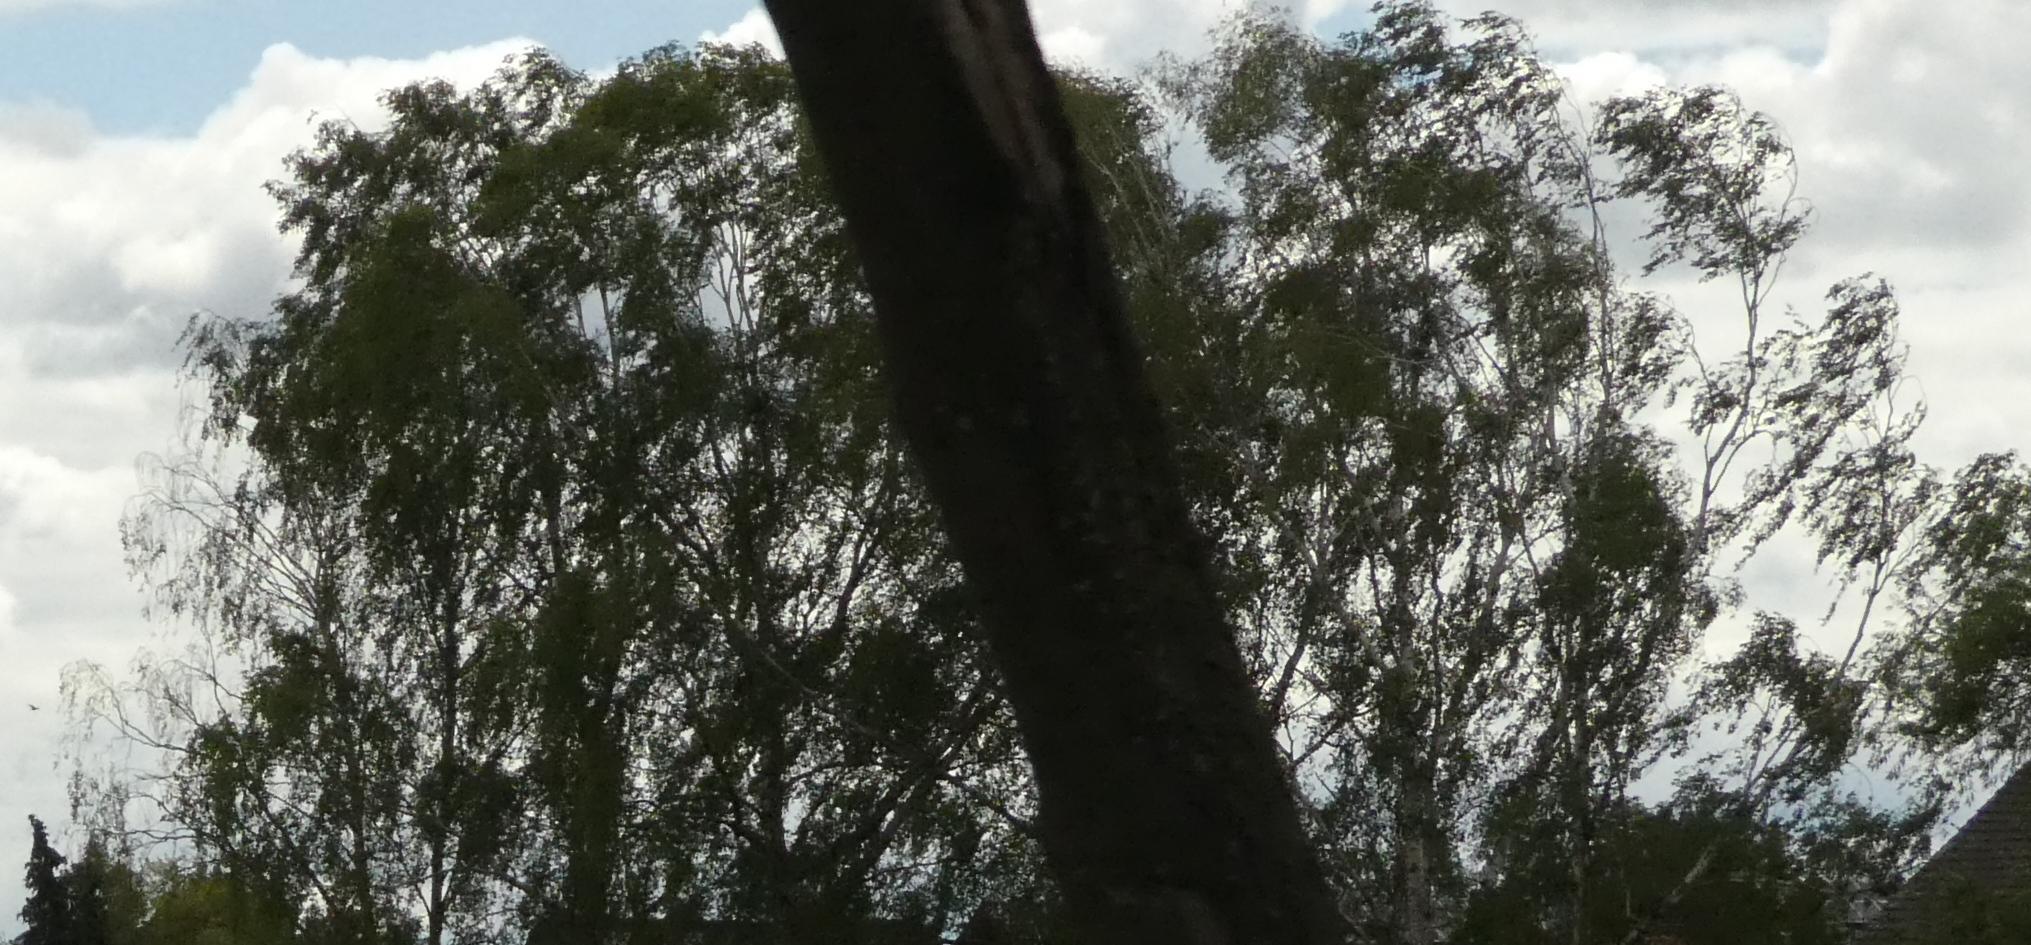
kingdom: Plantae
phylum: Tracheophyta
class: Magnoliopsida
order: Santalales
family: Viscaceae
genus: Viscum
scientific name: Viscum album
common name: Mistletoe
